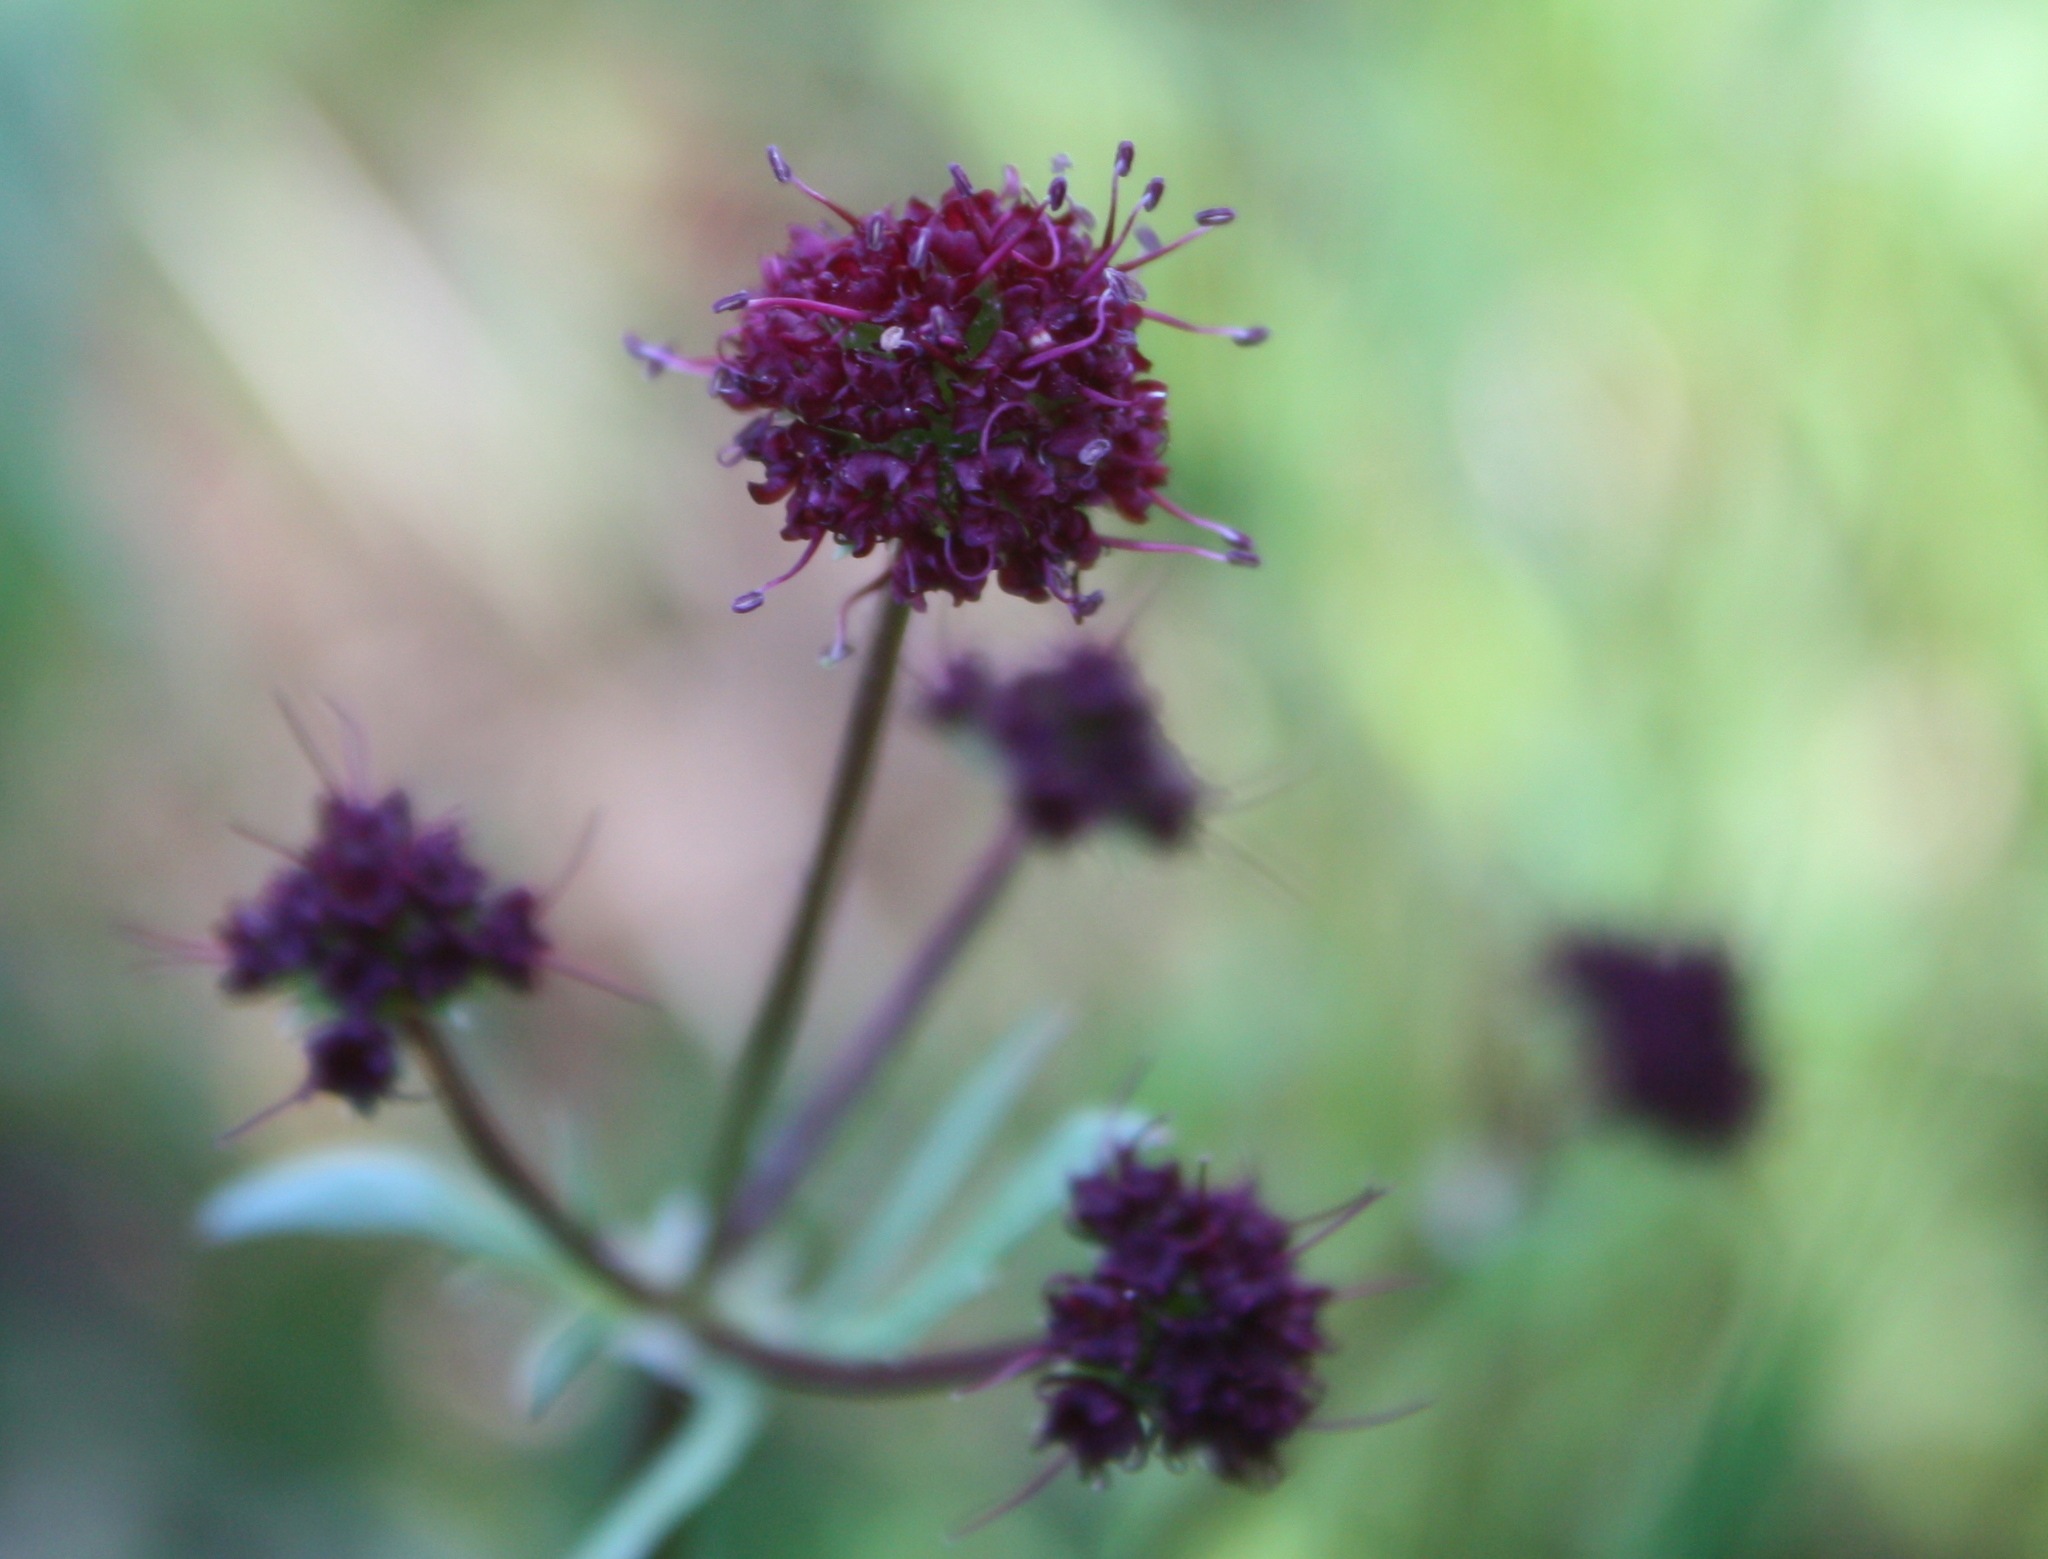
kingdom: Plantae
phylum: Tracheophyta
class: Magnoliopsida
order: Apiales
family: Apiaceae
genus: Sanicula
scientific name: Sanicula bipinnatifida
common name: Shoe-buttons
